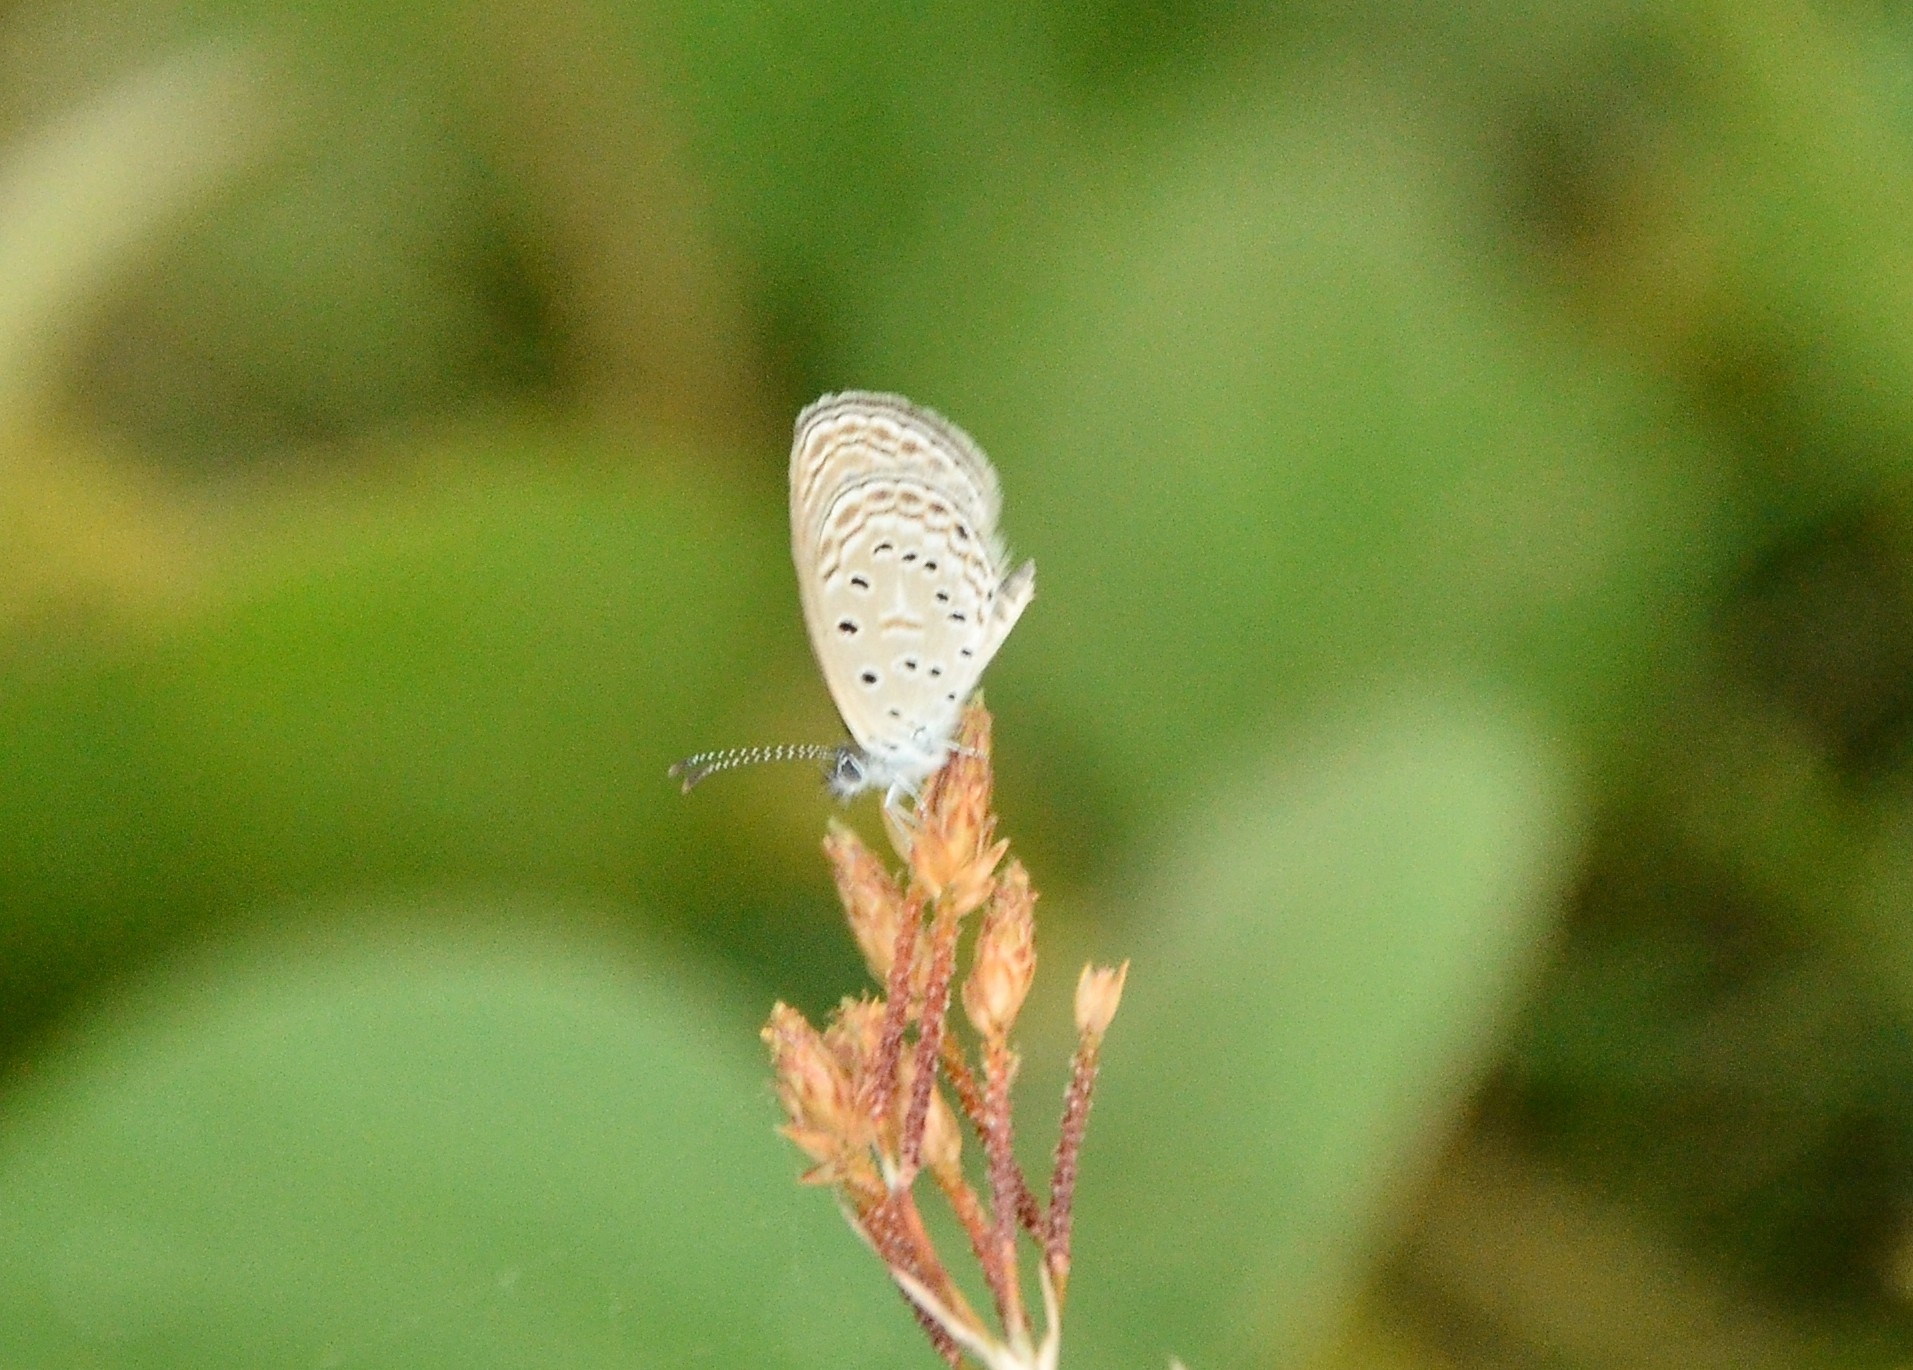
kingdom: Animalia
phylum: Arthropoda
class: Insecta
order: Lepidoptera
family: Lycaenidae
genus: Zizula
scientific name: Zizula hylax
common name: Gaika blue
